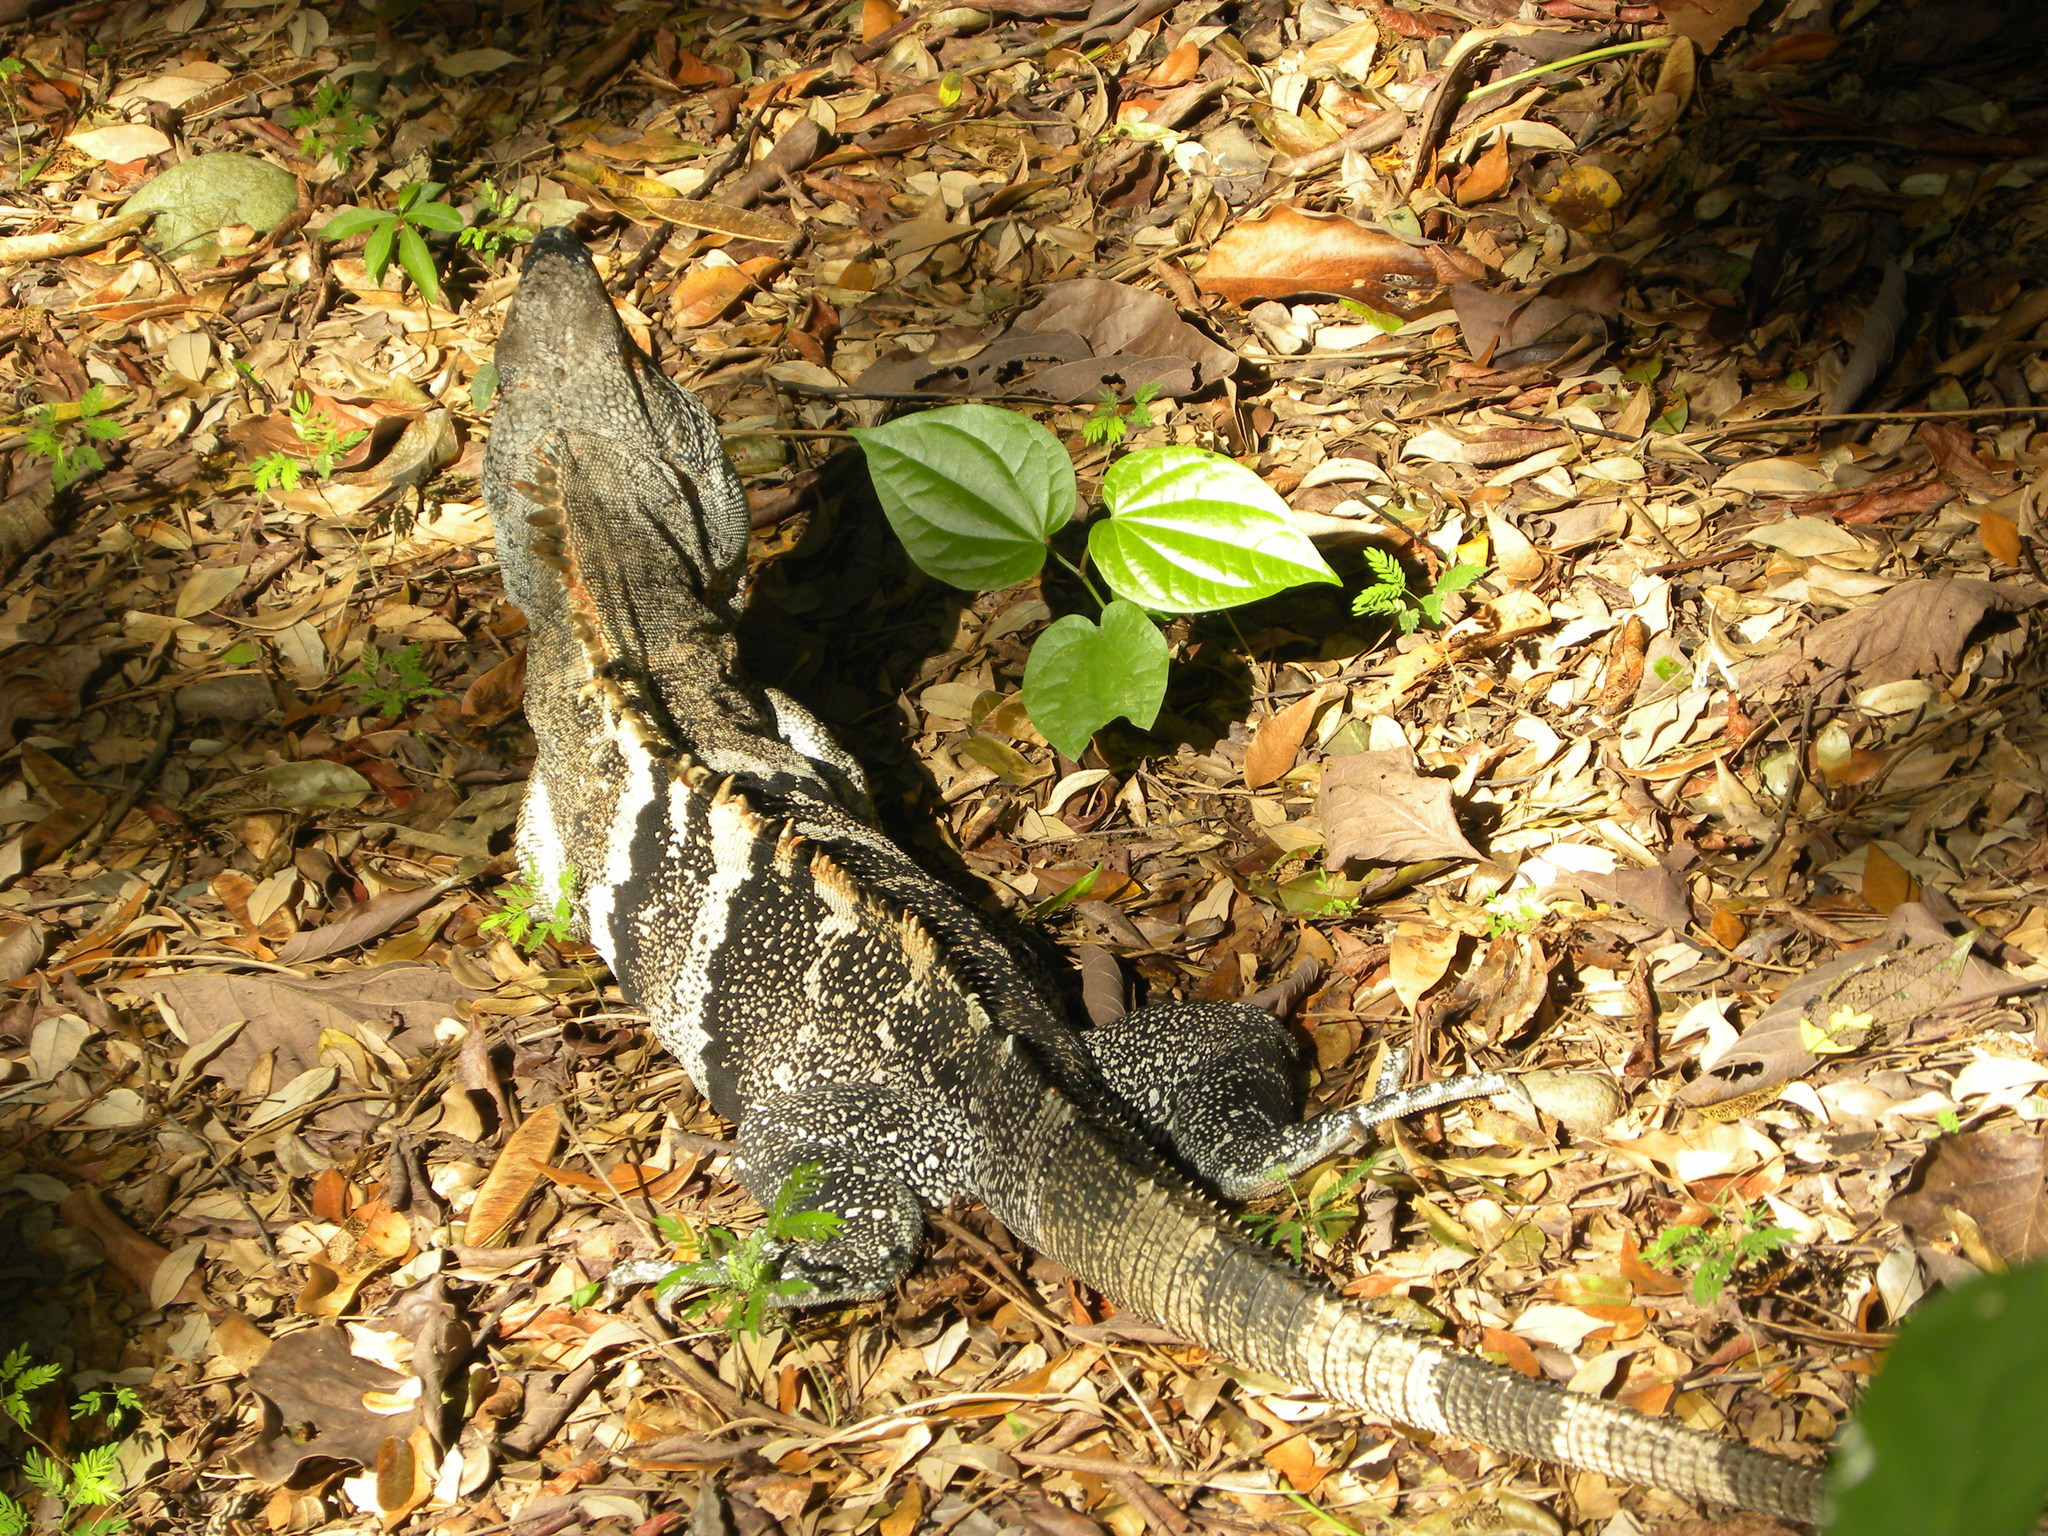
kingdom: Animalia
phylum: Chordata
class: Squamata
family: Iguanidae
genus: Ctenosaura
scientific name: Ctenosaura similis
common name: Black spiny-tailed iguana
